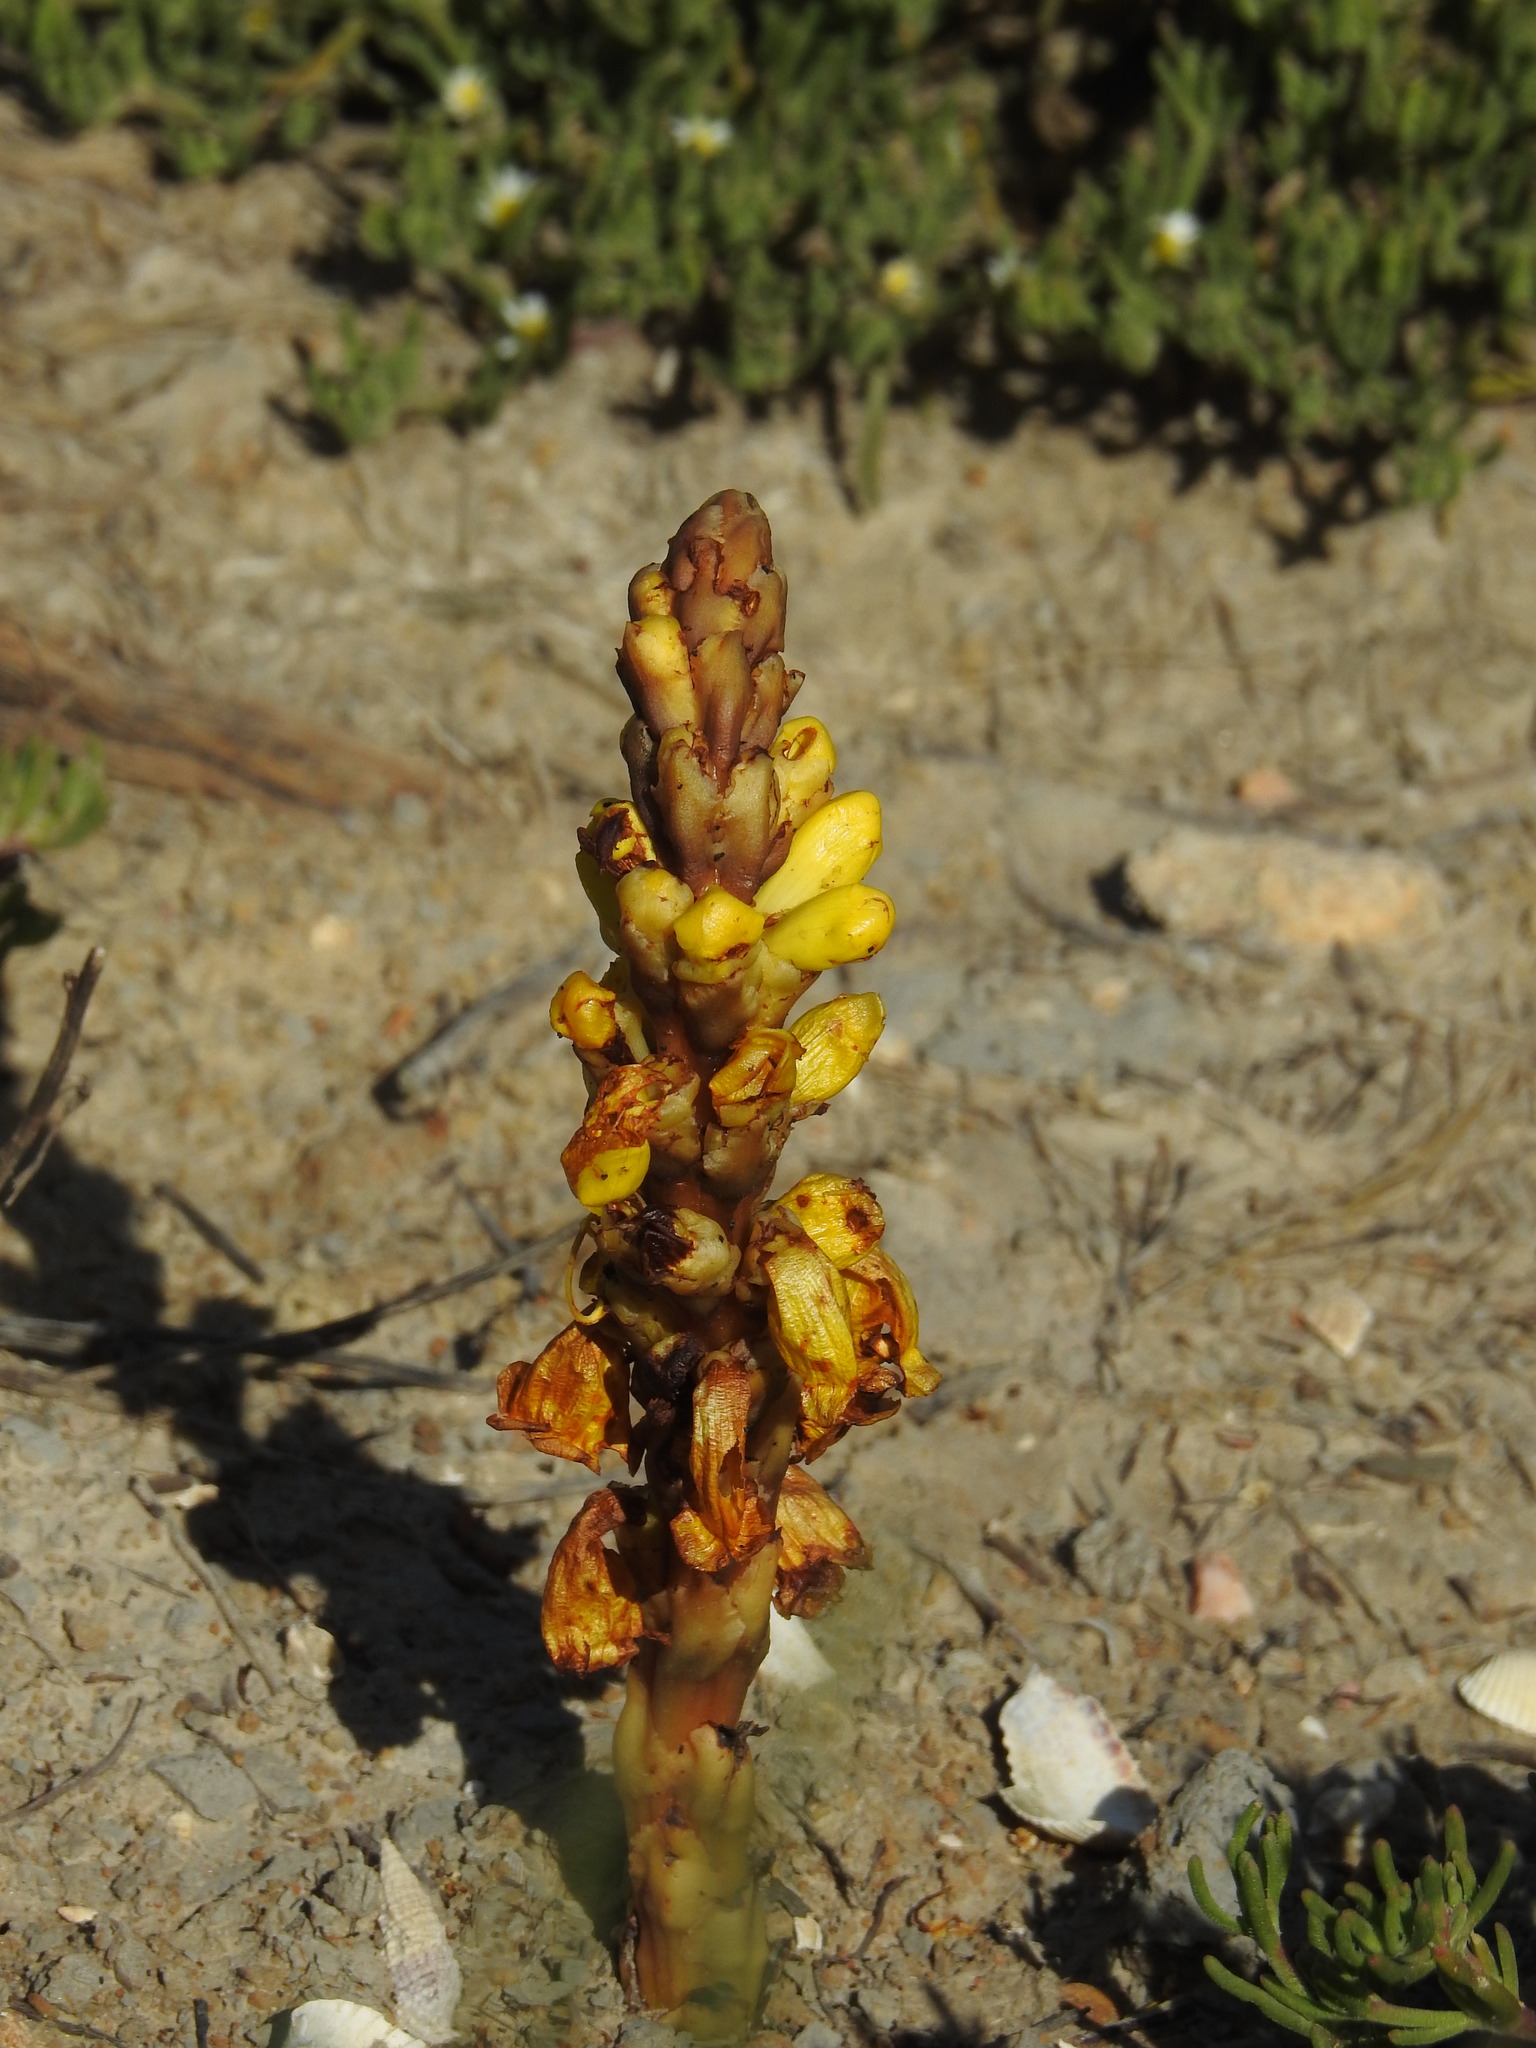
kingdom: Plantae
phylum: Tracheophyta
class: Magnoliopsida
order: Lamiales
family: Orobanchaceae
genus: Cistanche
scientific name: Cistanche phelypaea
